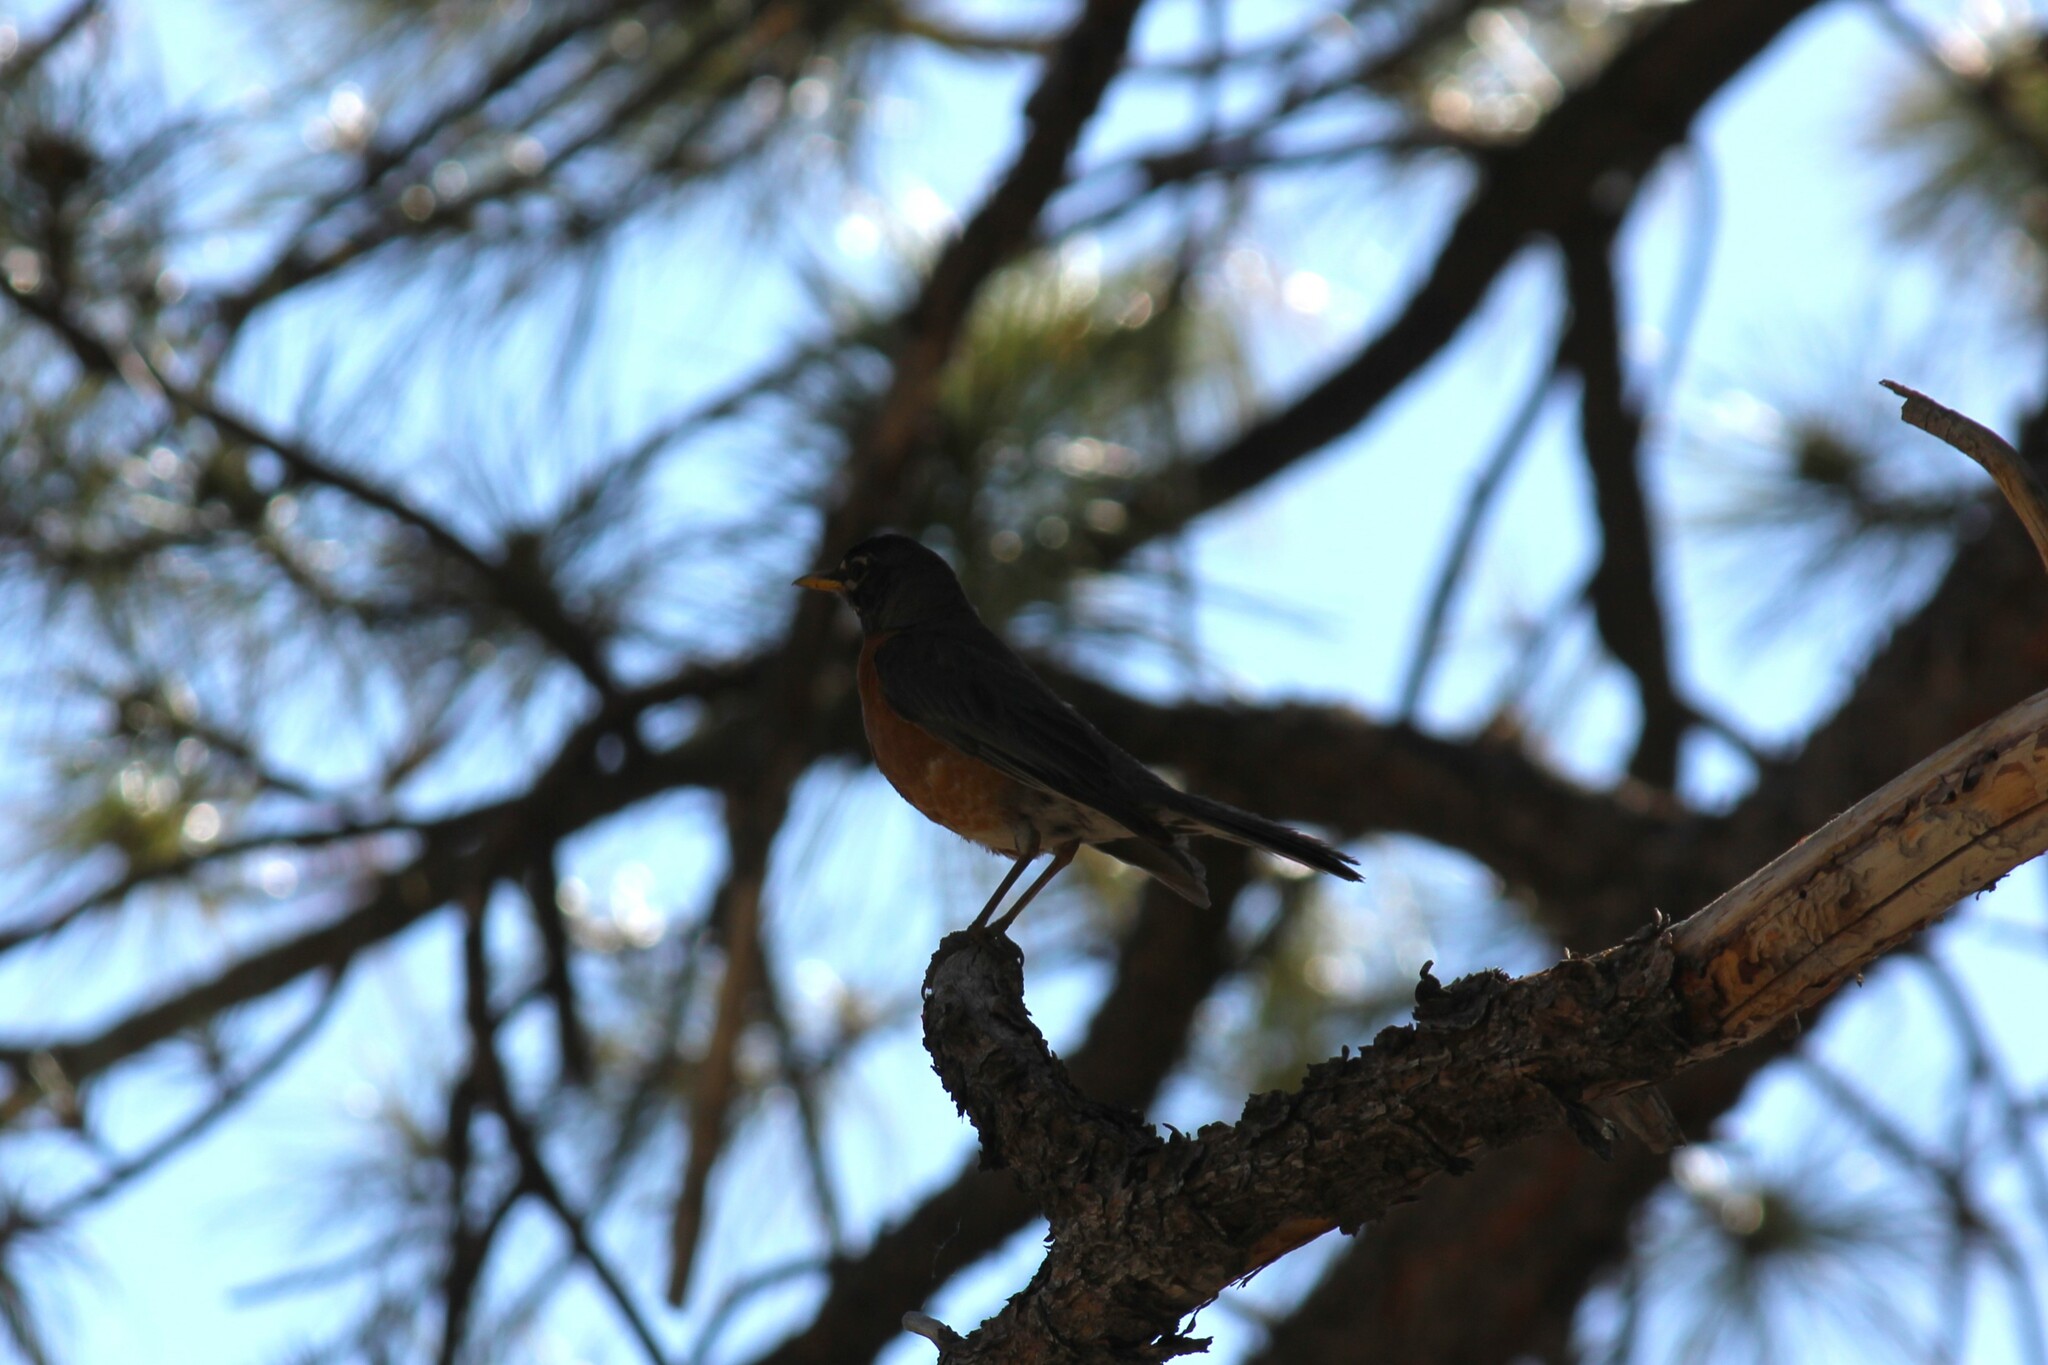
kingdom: Animalia
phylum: Chordata
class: Aves
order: Passeriformes
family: Turdidae
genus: Turdus
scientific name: Turdus migratorius
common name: American robin
